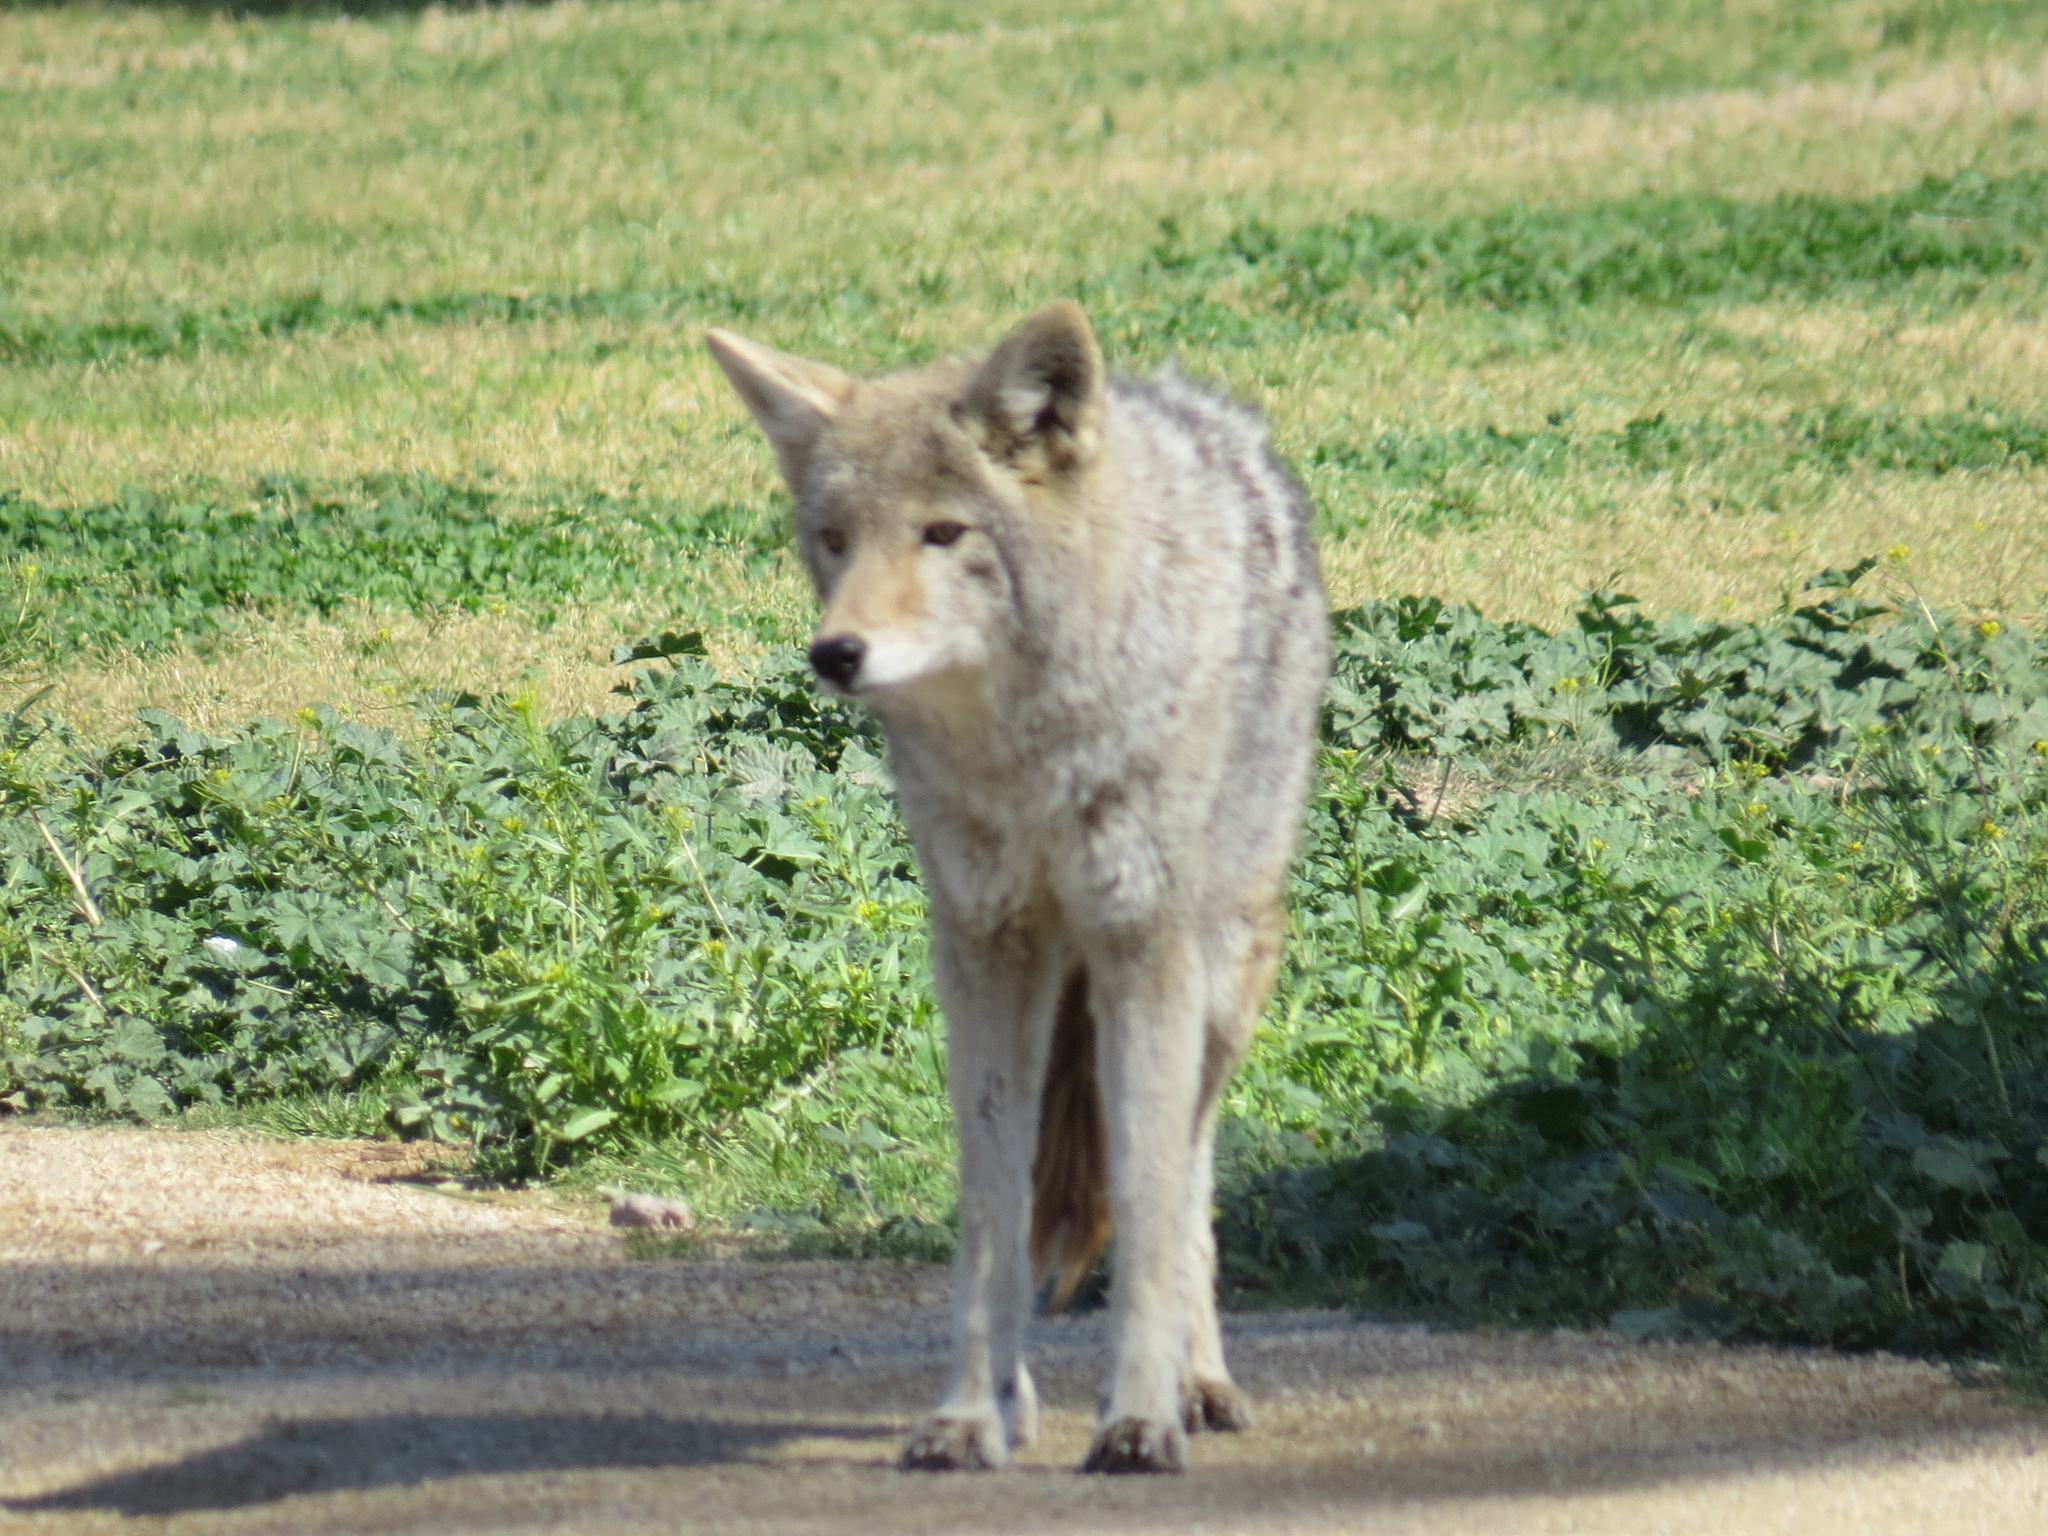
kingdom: Animalia
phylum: Chordata
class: Mammalia
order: Carnivora
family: Canidae
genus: Canis
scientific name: Canis latrans
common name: Coyote
